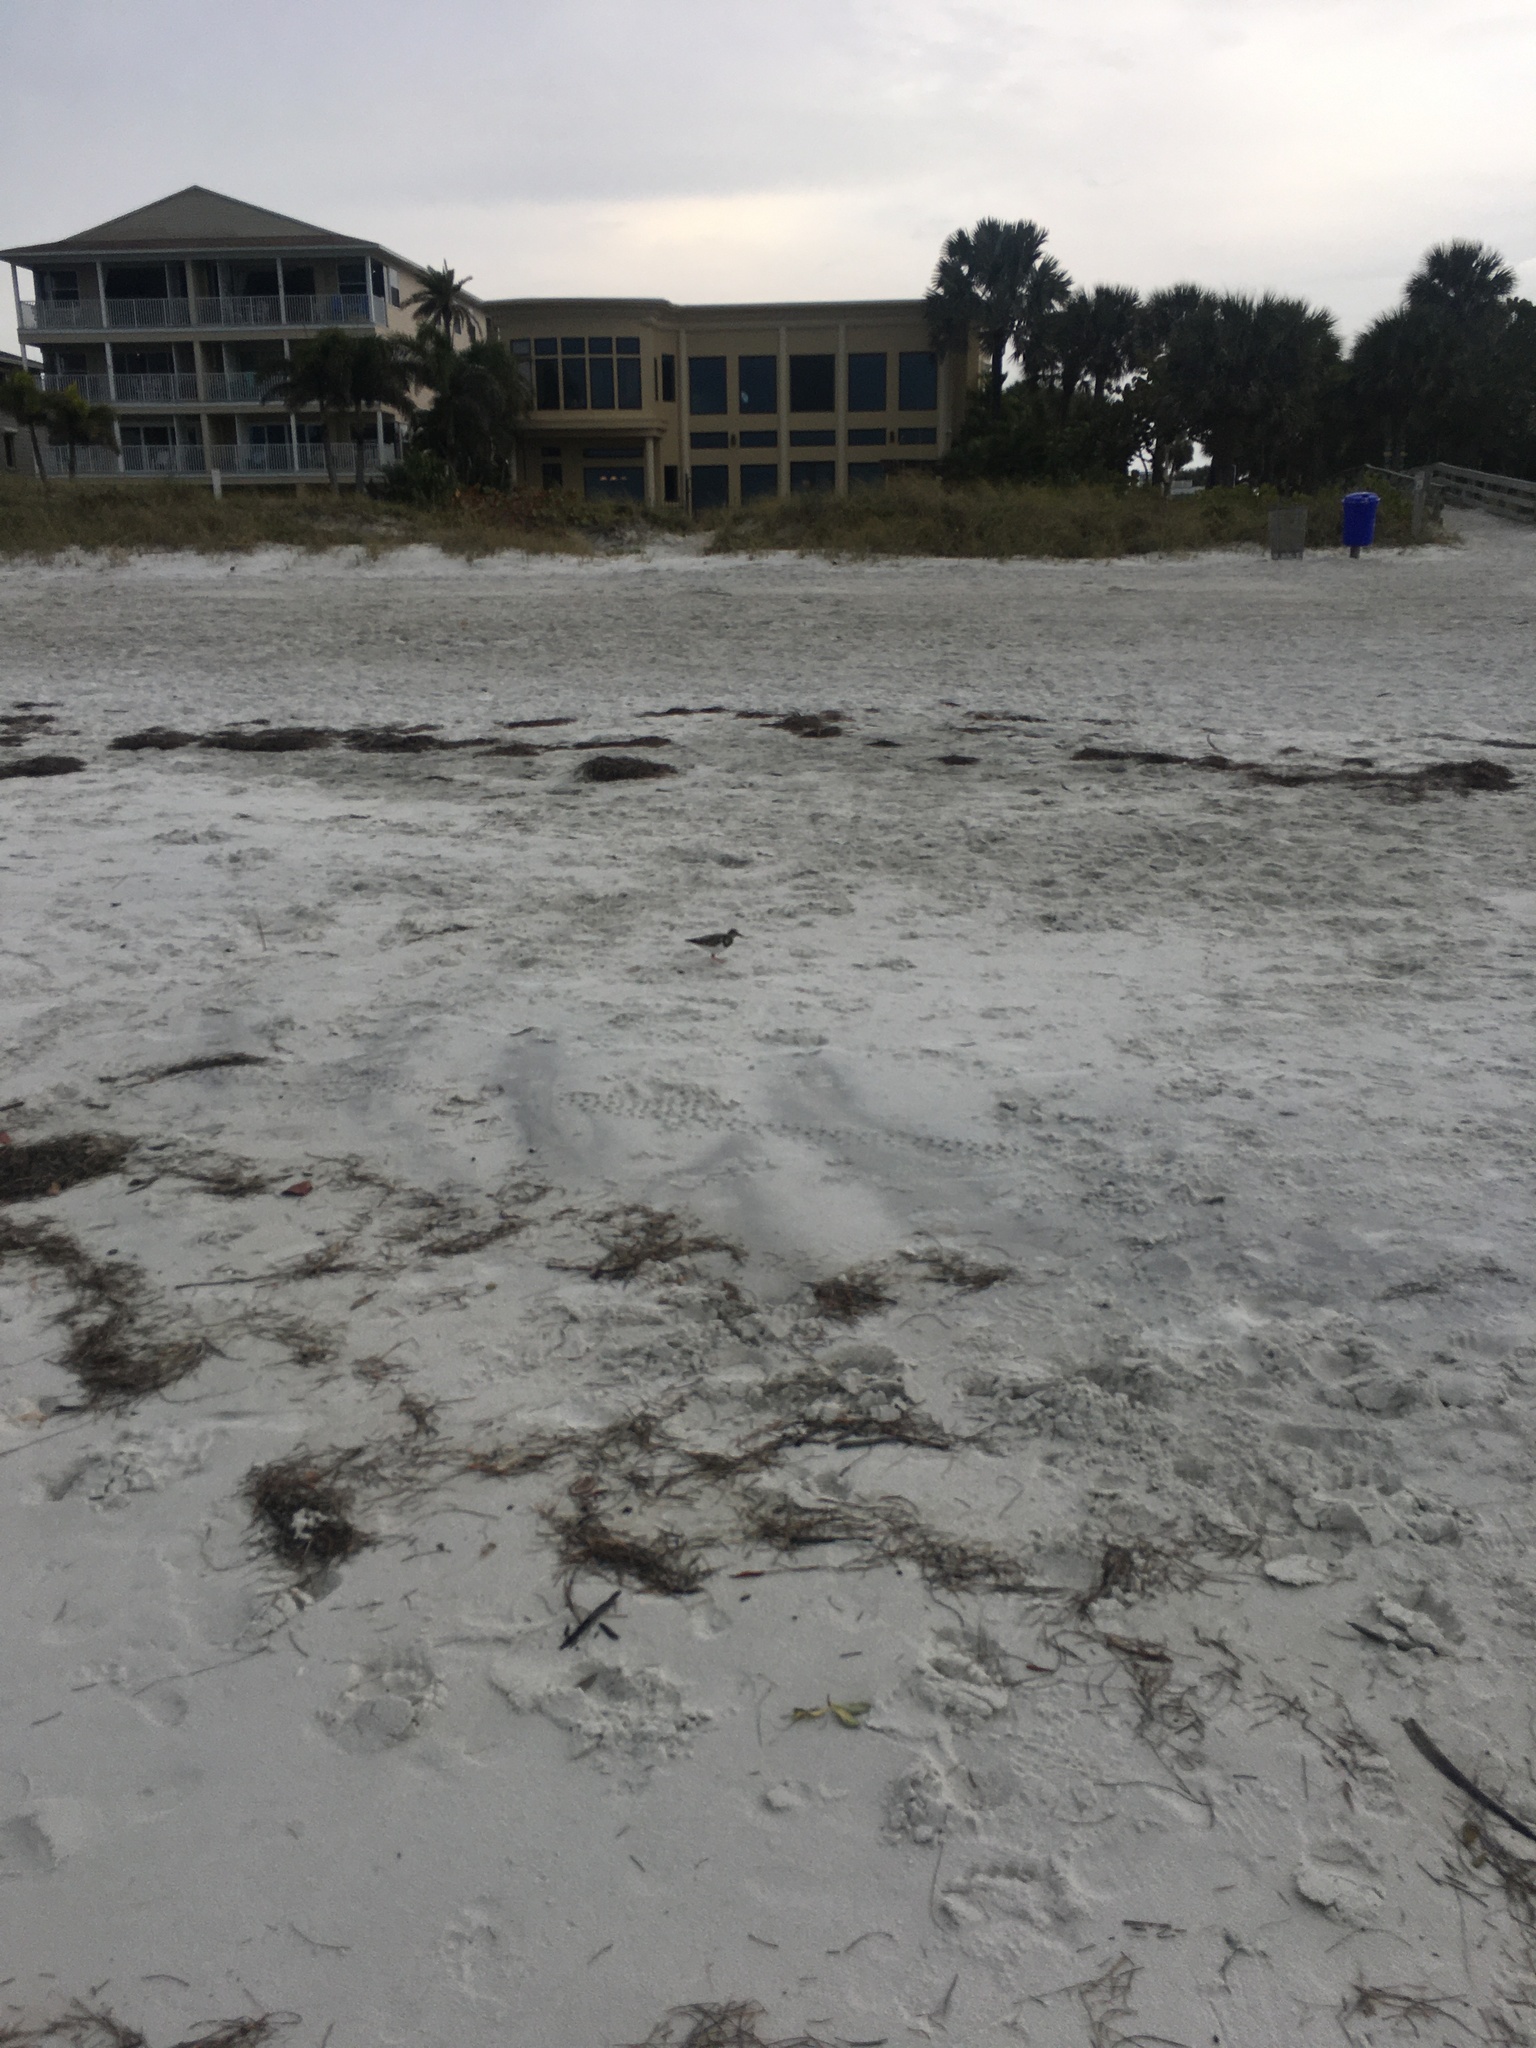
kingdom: Animalia
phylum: Chordata
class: Aves
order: Charadriiformes
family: Scolopacidae
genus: Arenaria
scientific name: Arenaria interpres
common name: Ruddy turnstone
